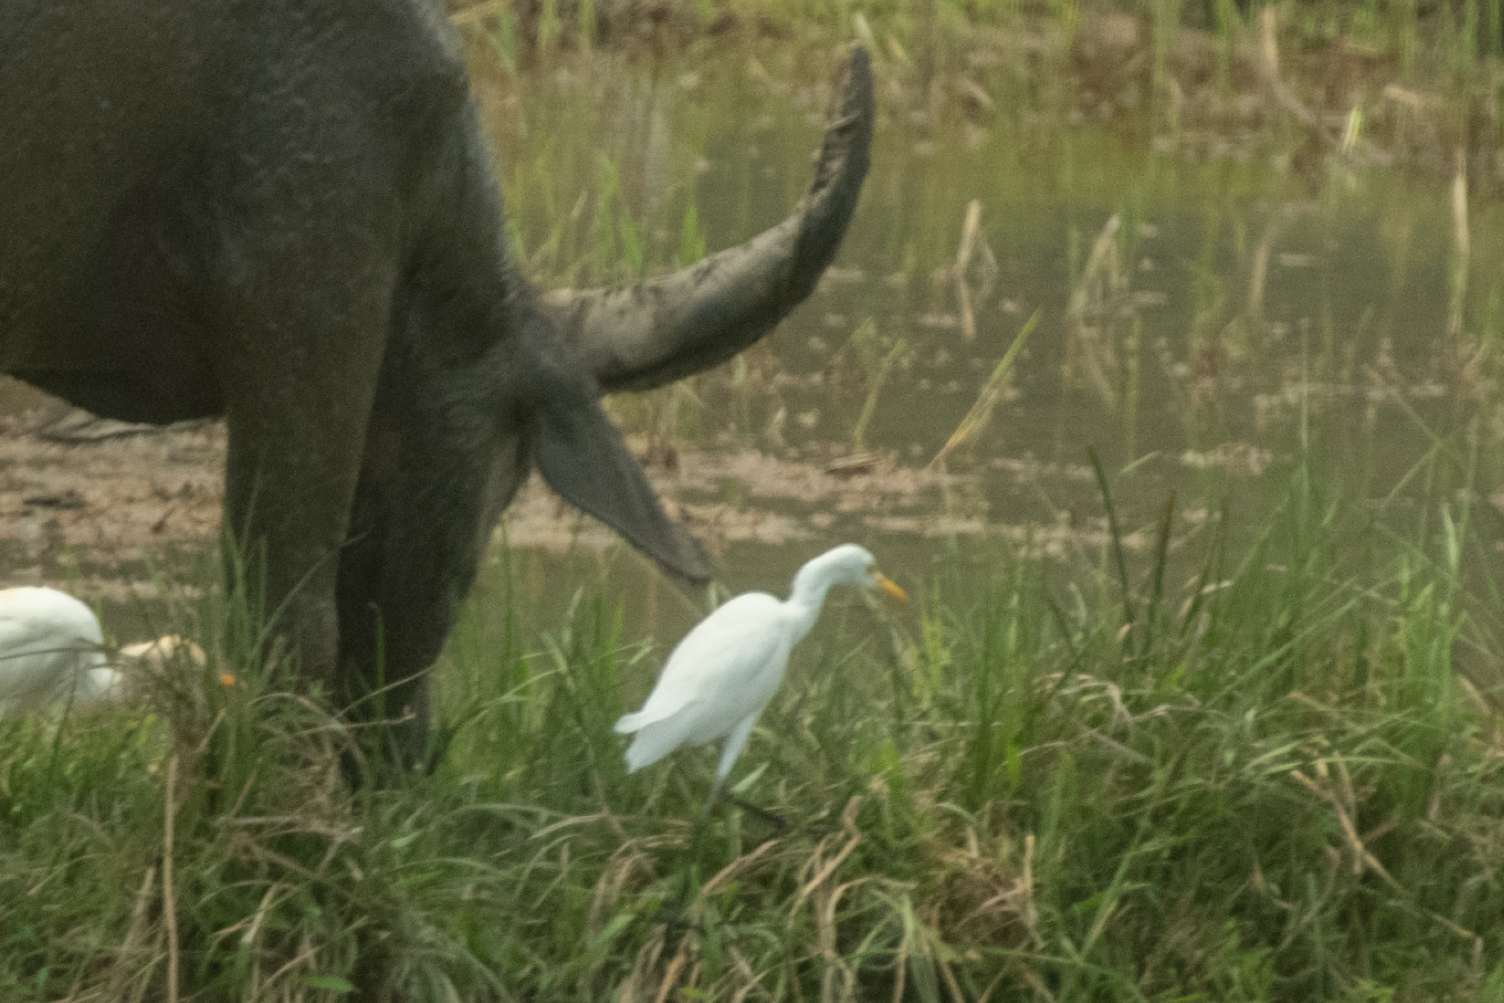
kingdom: Animalia
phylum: Chordata
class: Aves
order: Pelecaniformes
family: Ardeidae
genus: Bubulcus
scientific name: Bubulcus coromandus
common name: Eastern cattle egret
